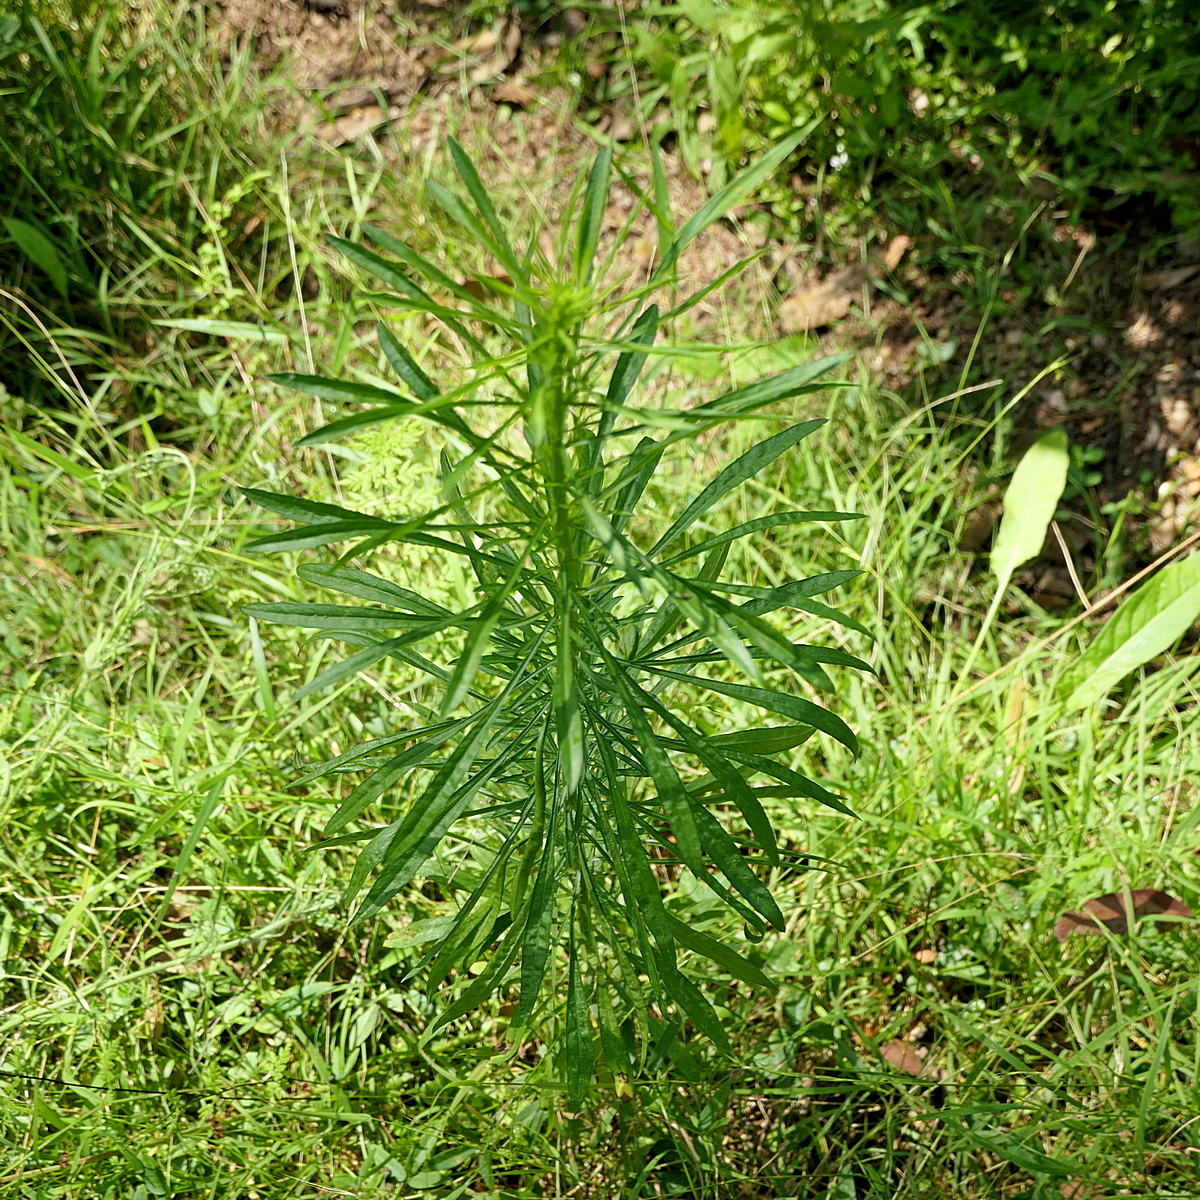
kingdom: Plantae
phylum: Tracheophyta
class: Magnoliopsida
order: Asterales
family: Asteraceae
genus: Erigeron
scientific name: Erigeron canadensis
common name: Canadian fleabane
